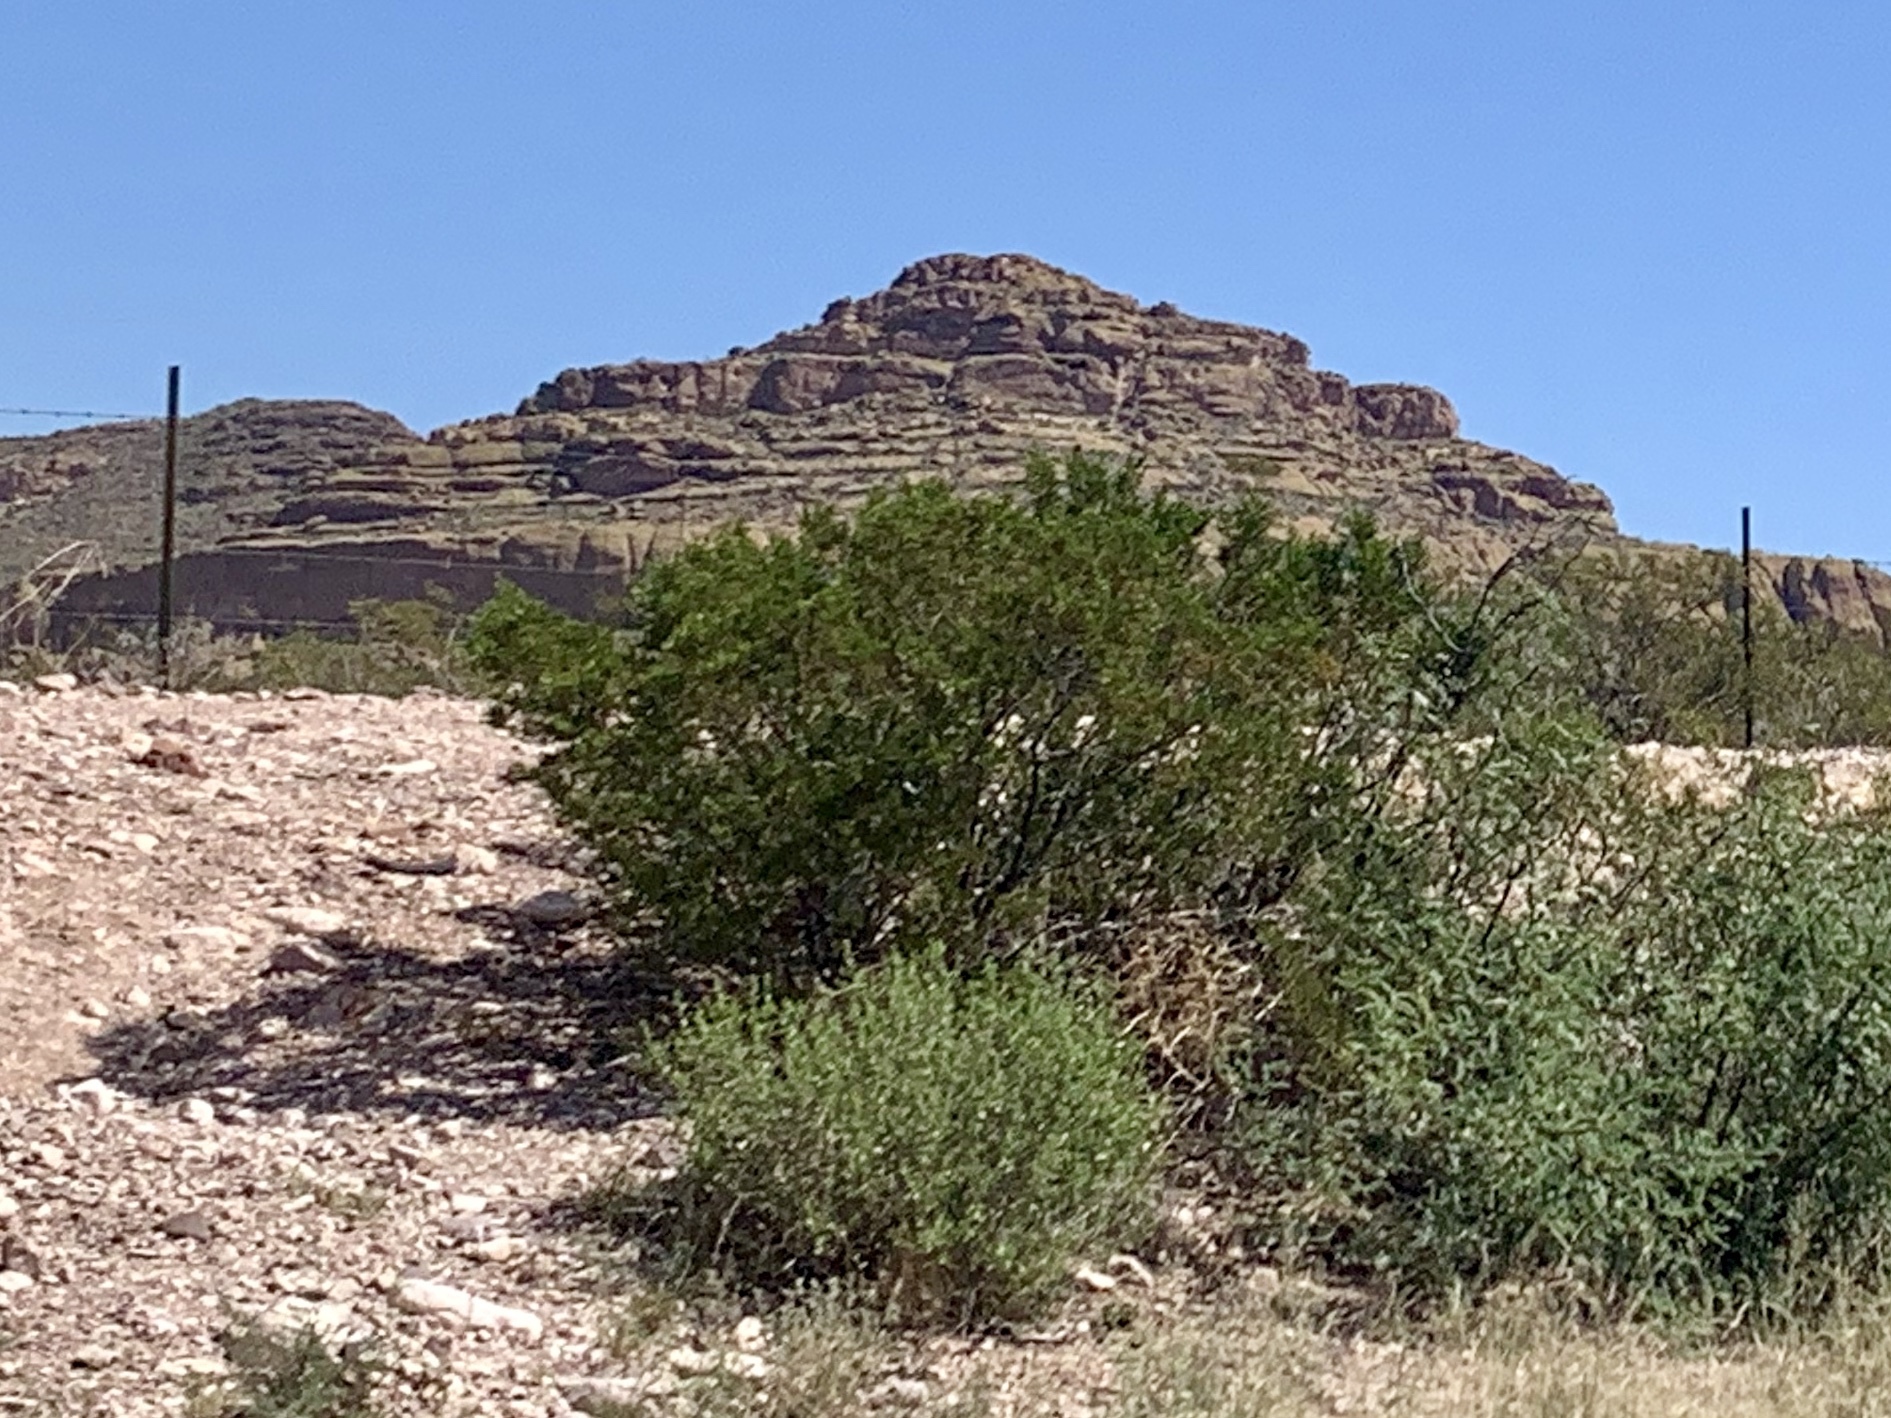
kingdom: Plantae
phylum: Tracheophyta
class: Magnoliopsida
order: Zygophyllales
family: Zygophyllaceae
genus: Larrea
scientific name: Larrea tridentata
